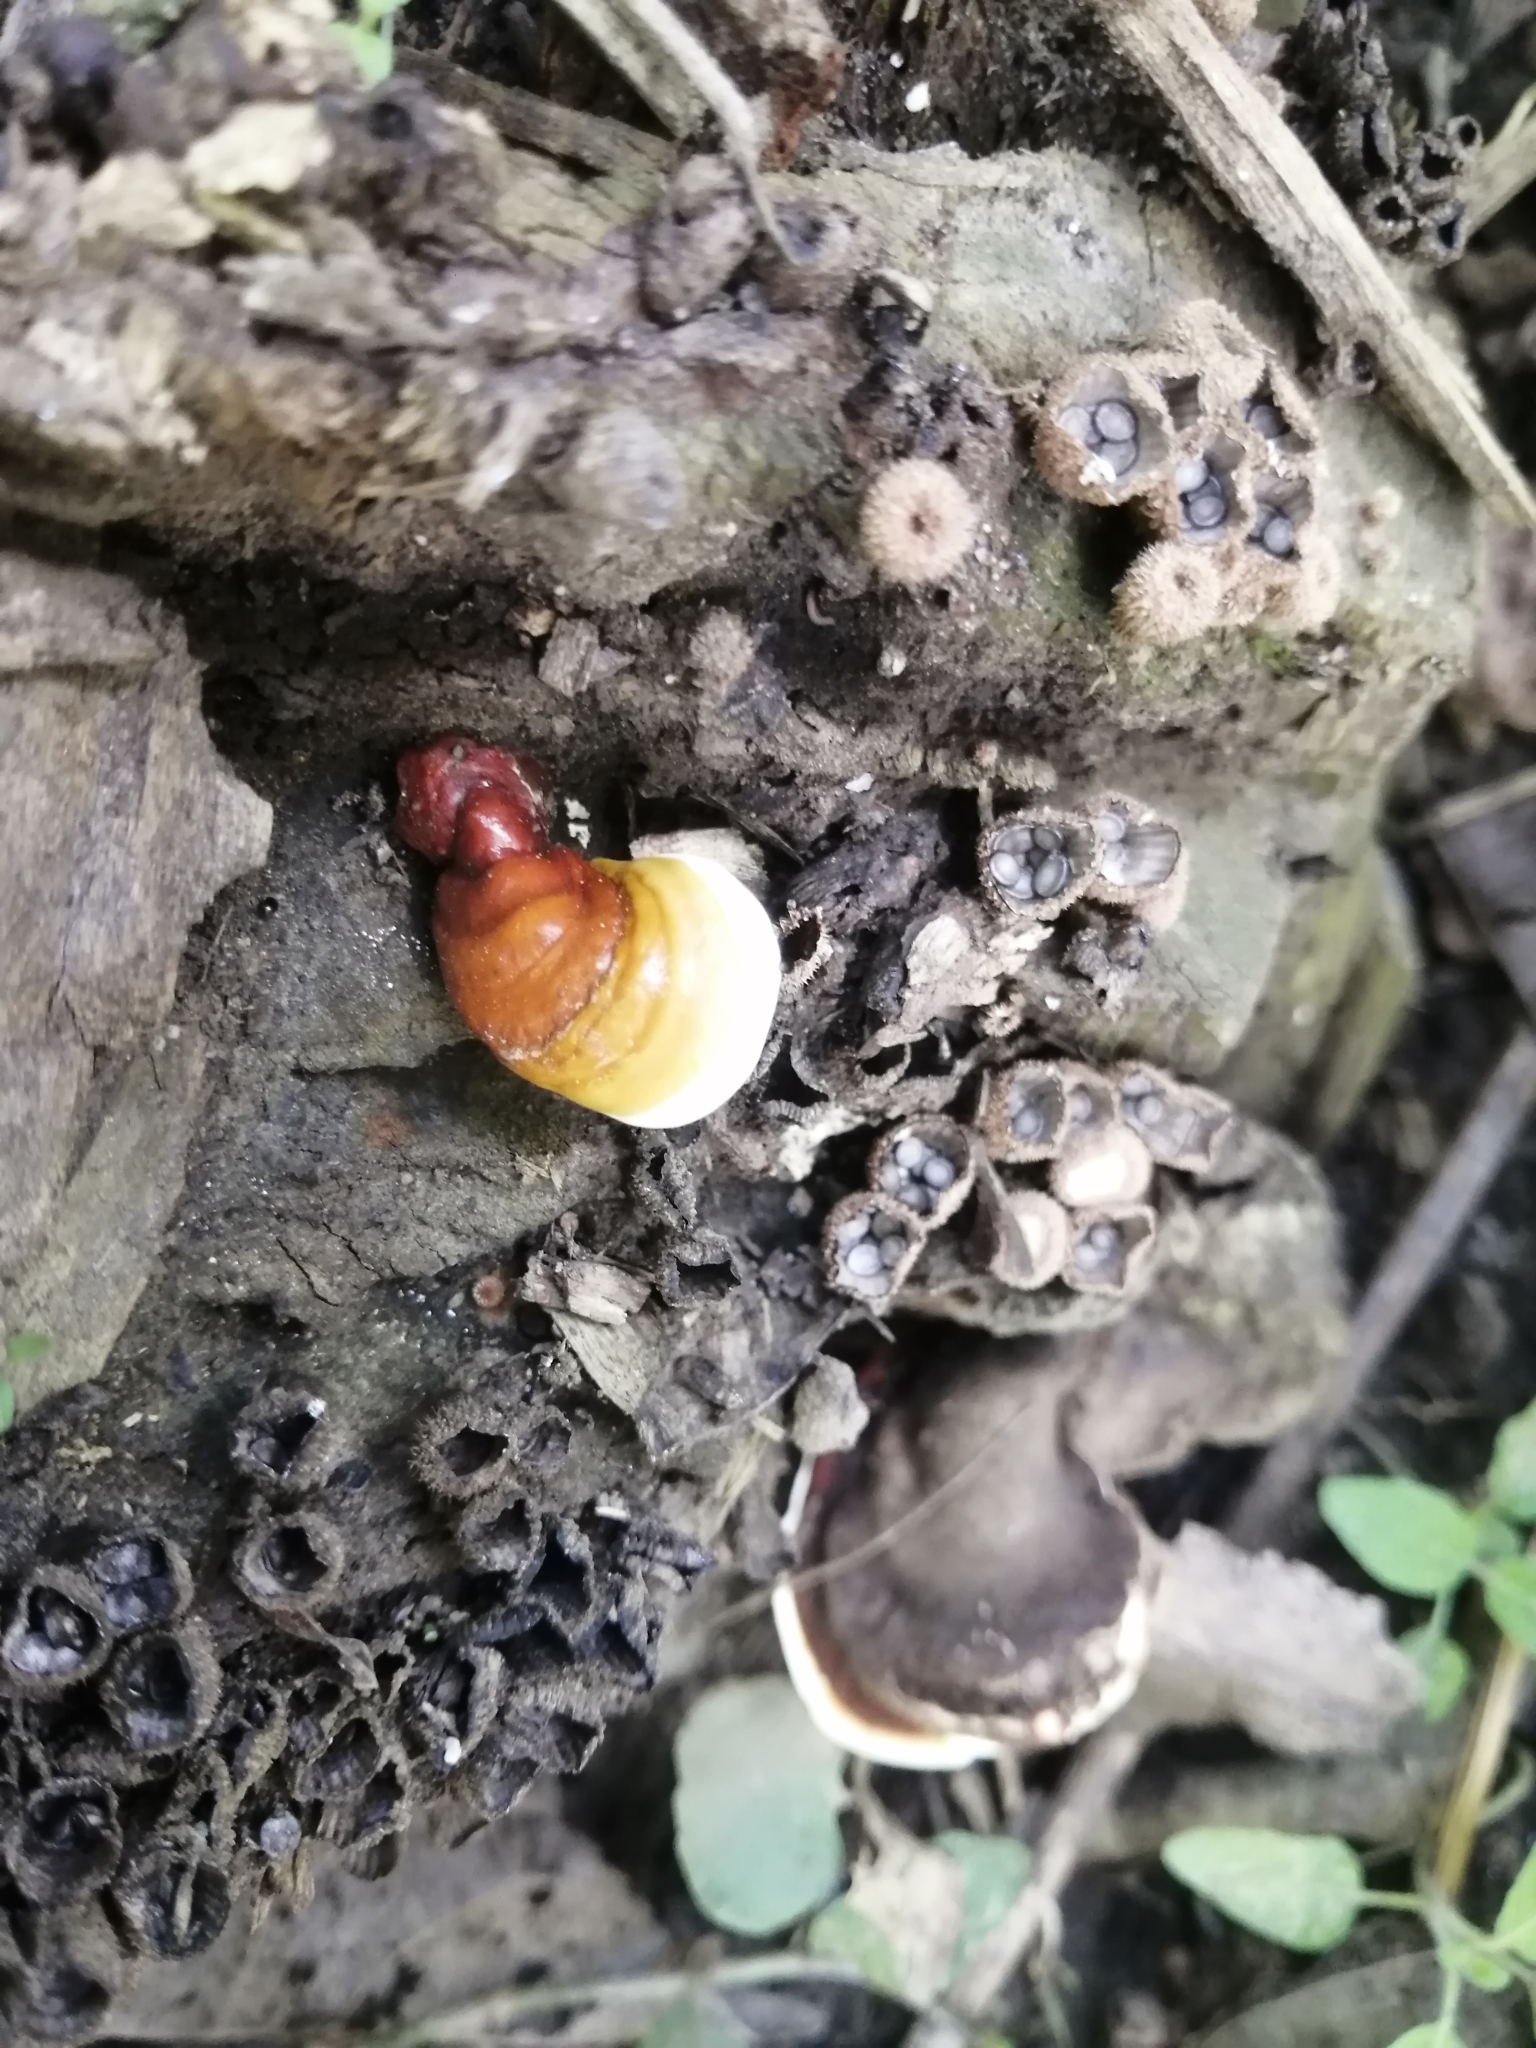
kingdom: Fungi
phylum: Basidiomycota
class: Agaricomycetes
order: Polyporales
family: Polyporaceae
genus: Ganoderma
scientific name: Ganoderma curtisii
